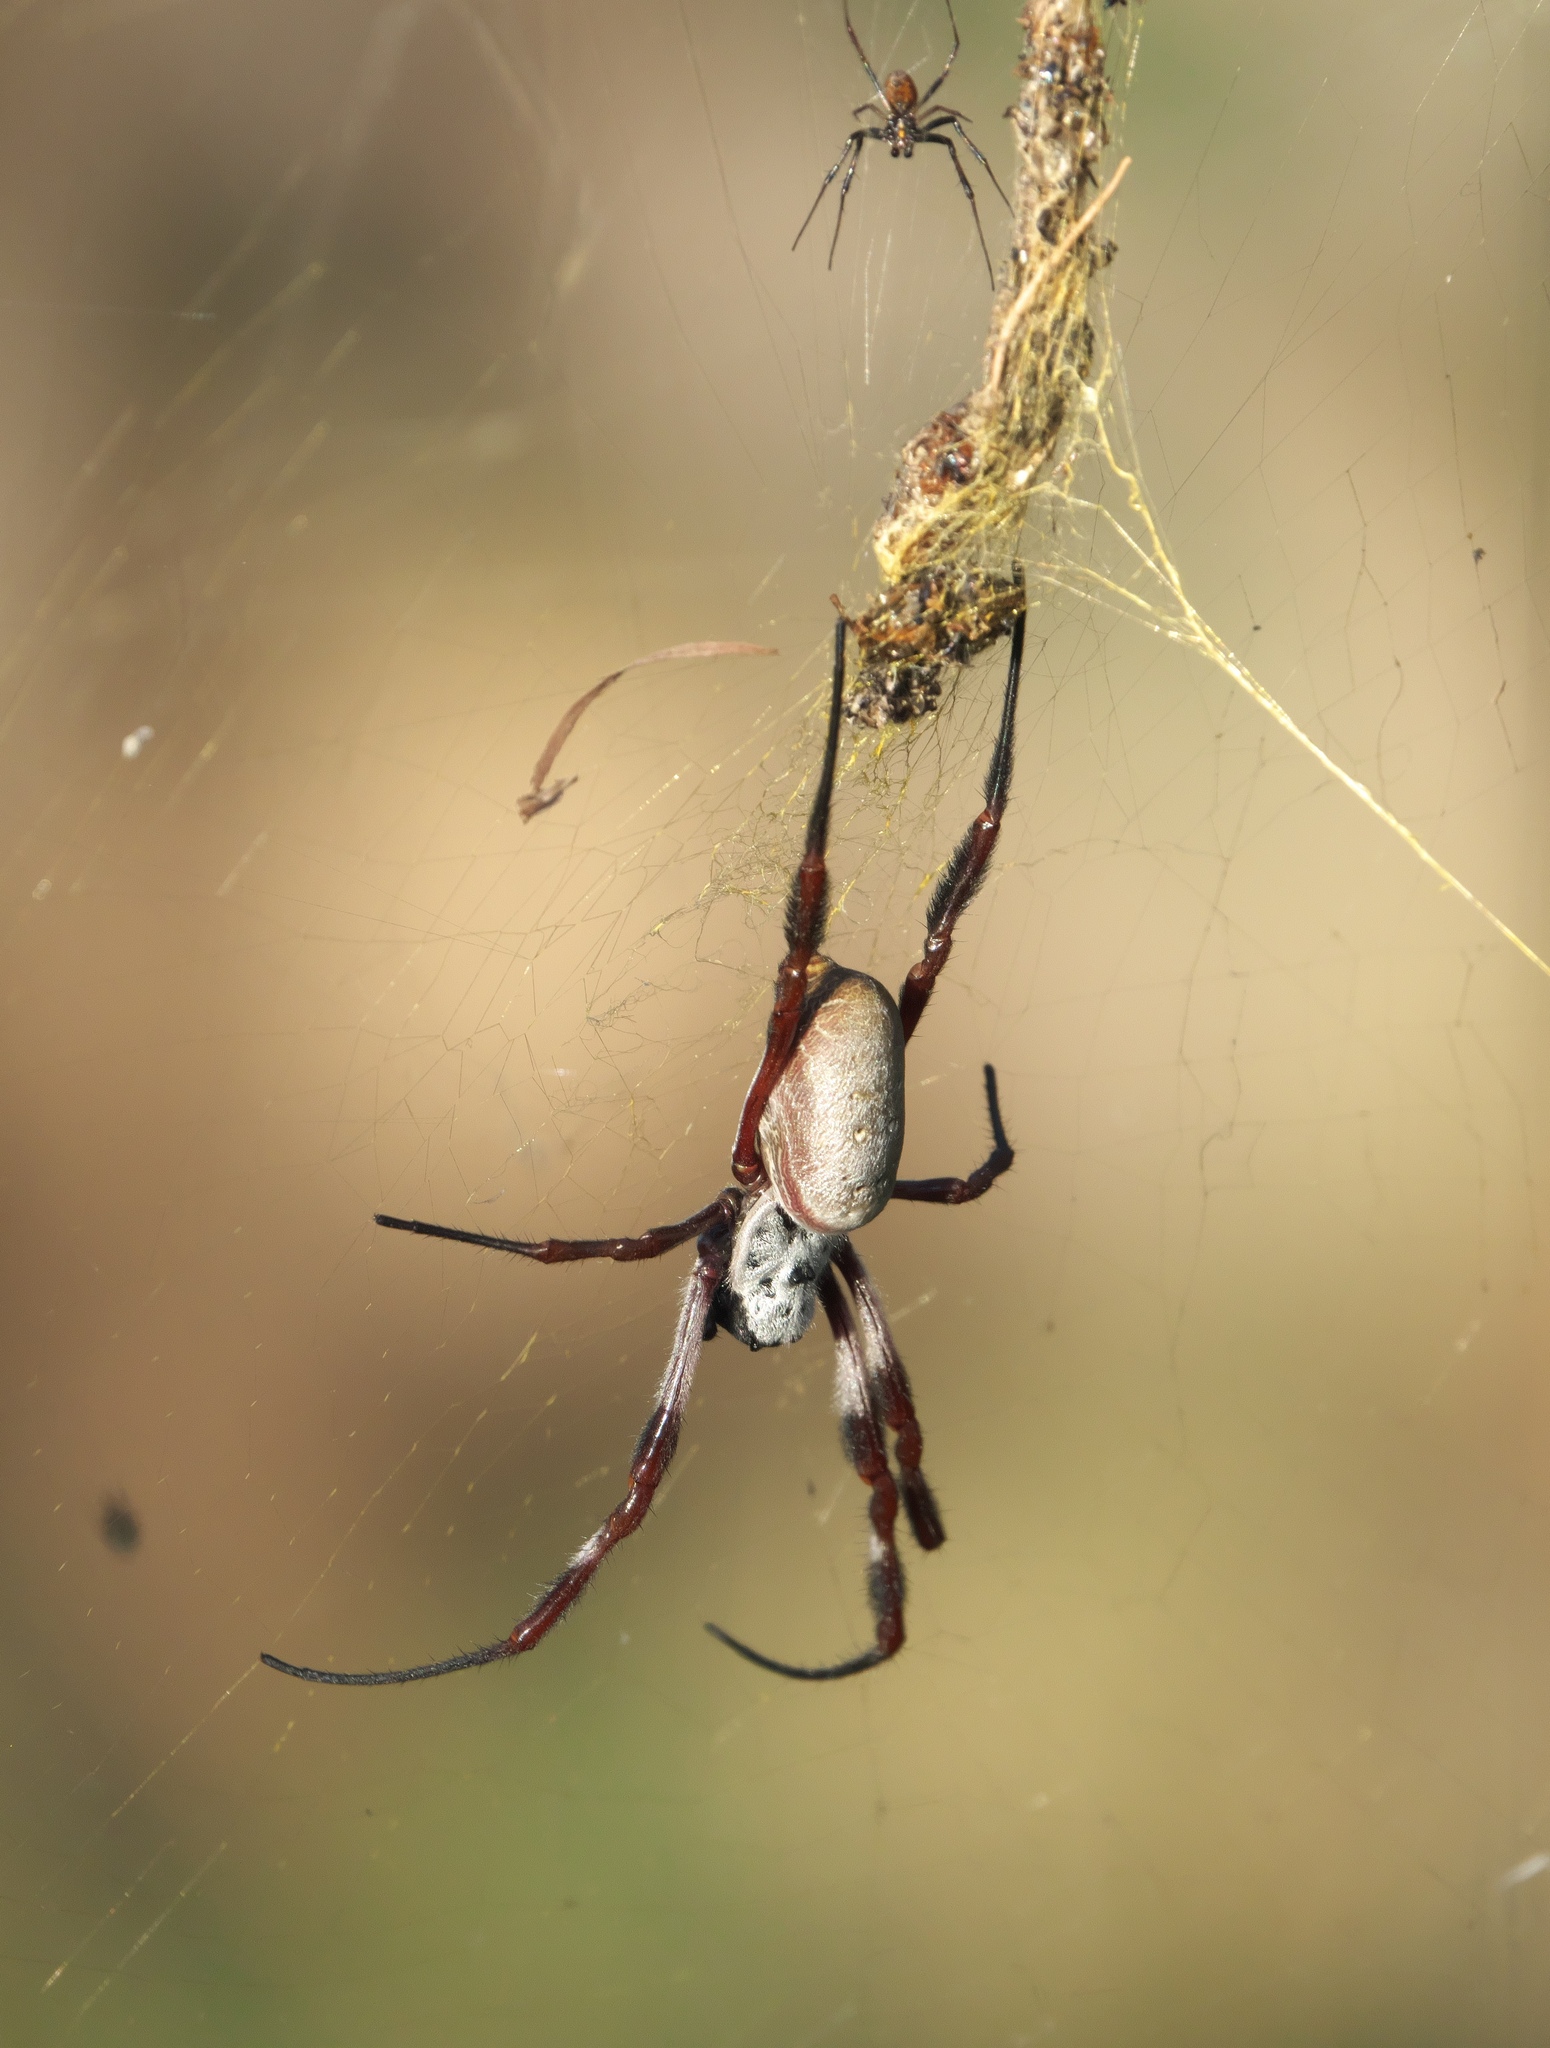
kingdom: Animalia
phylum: Arthropoda
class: Arachnida
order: Araneae
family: Araneidae
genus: Trichonephila
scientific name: Trichonephila edulis
